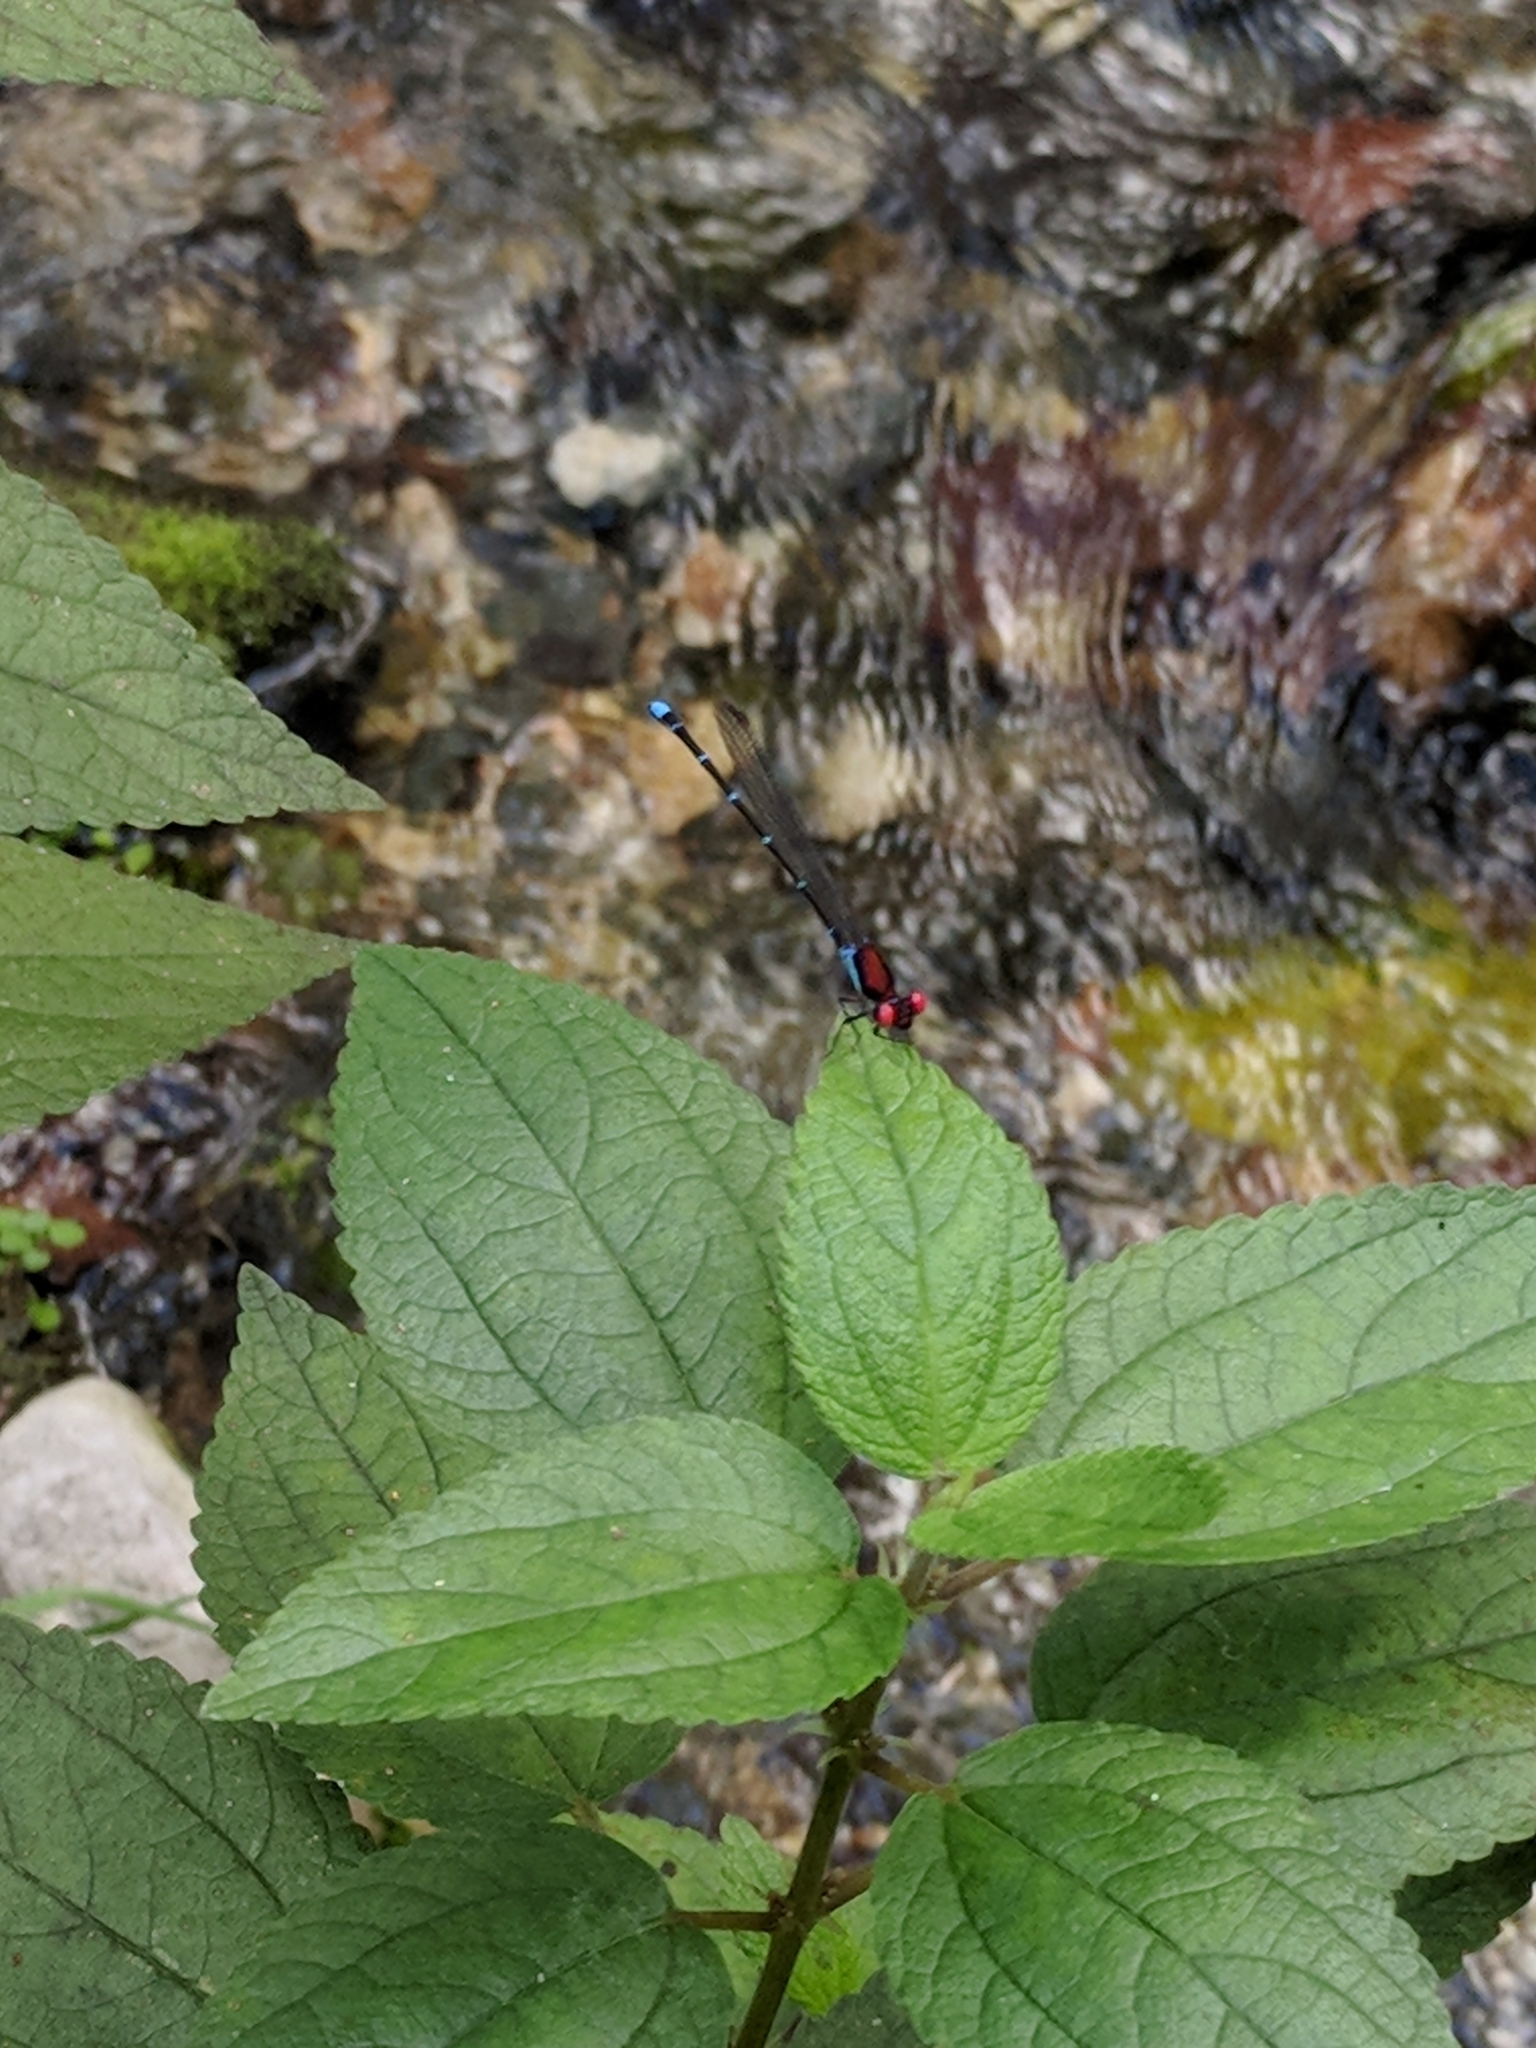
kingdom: Animalia
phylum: Arthropoda
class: Insecta
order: Odonata
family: Coenagrionidae
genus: Argia
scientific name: Argia cuprea
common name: Coppery dancer
